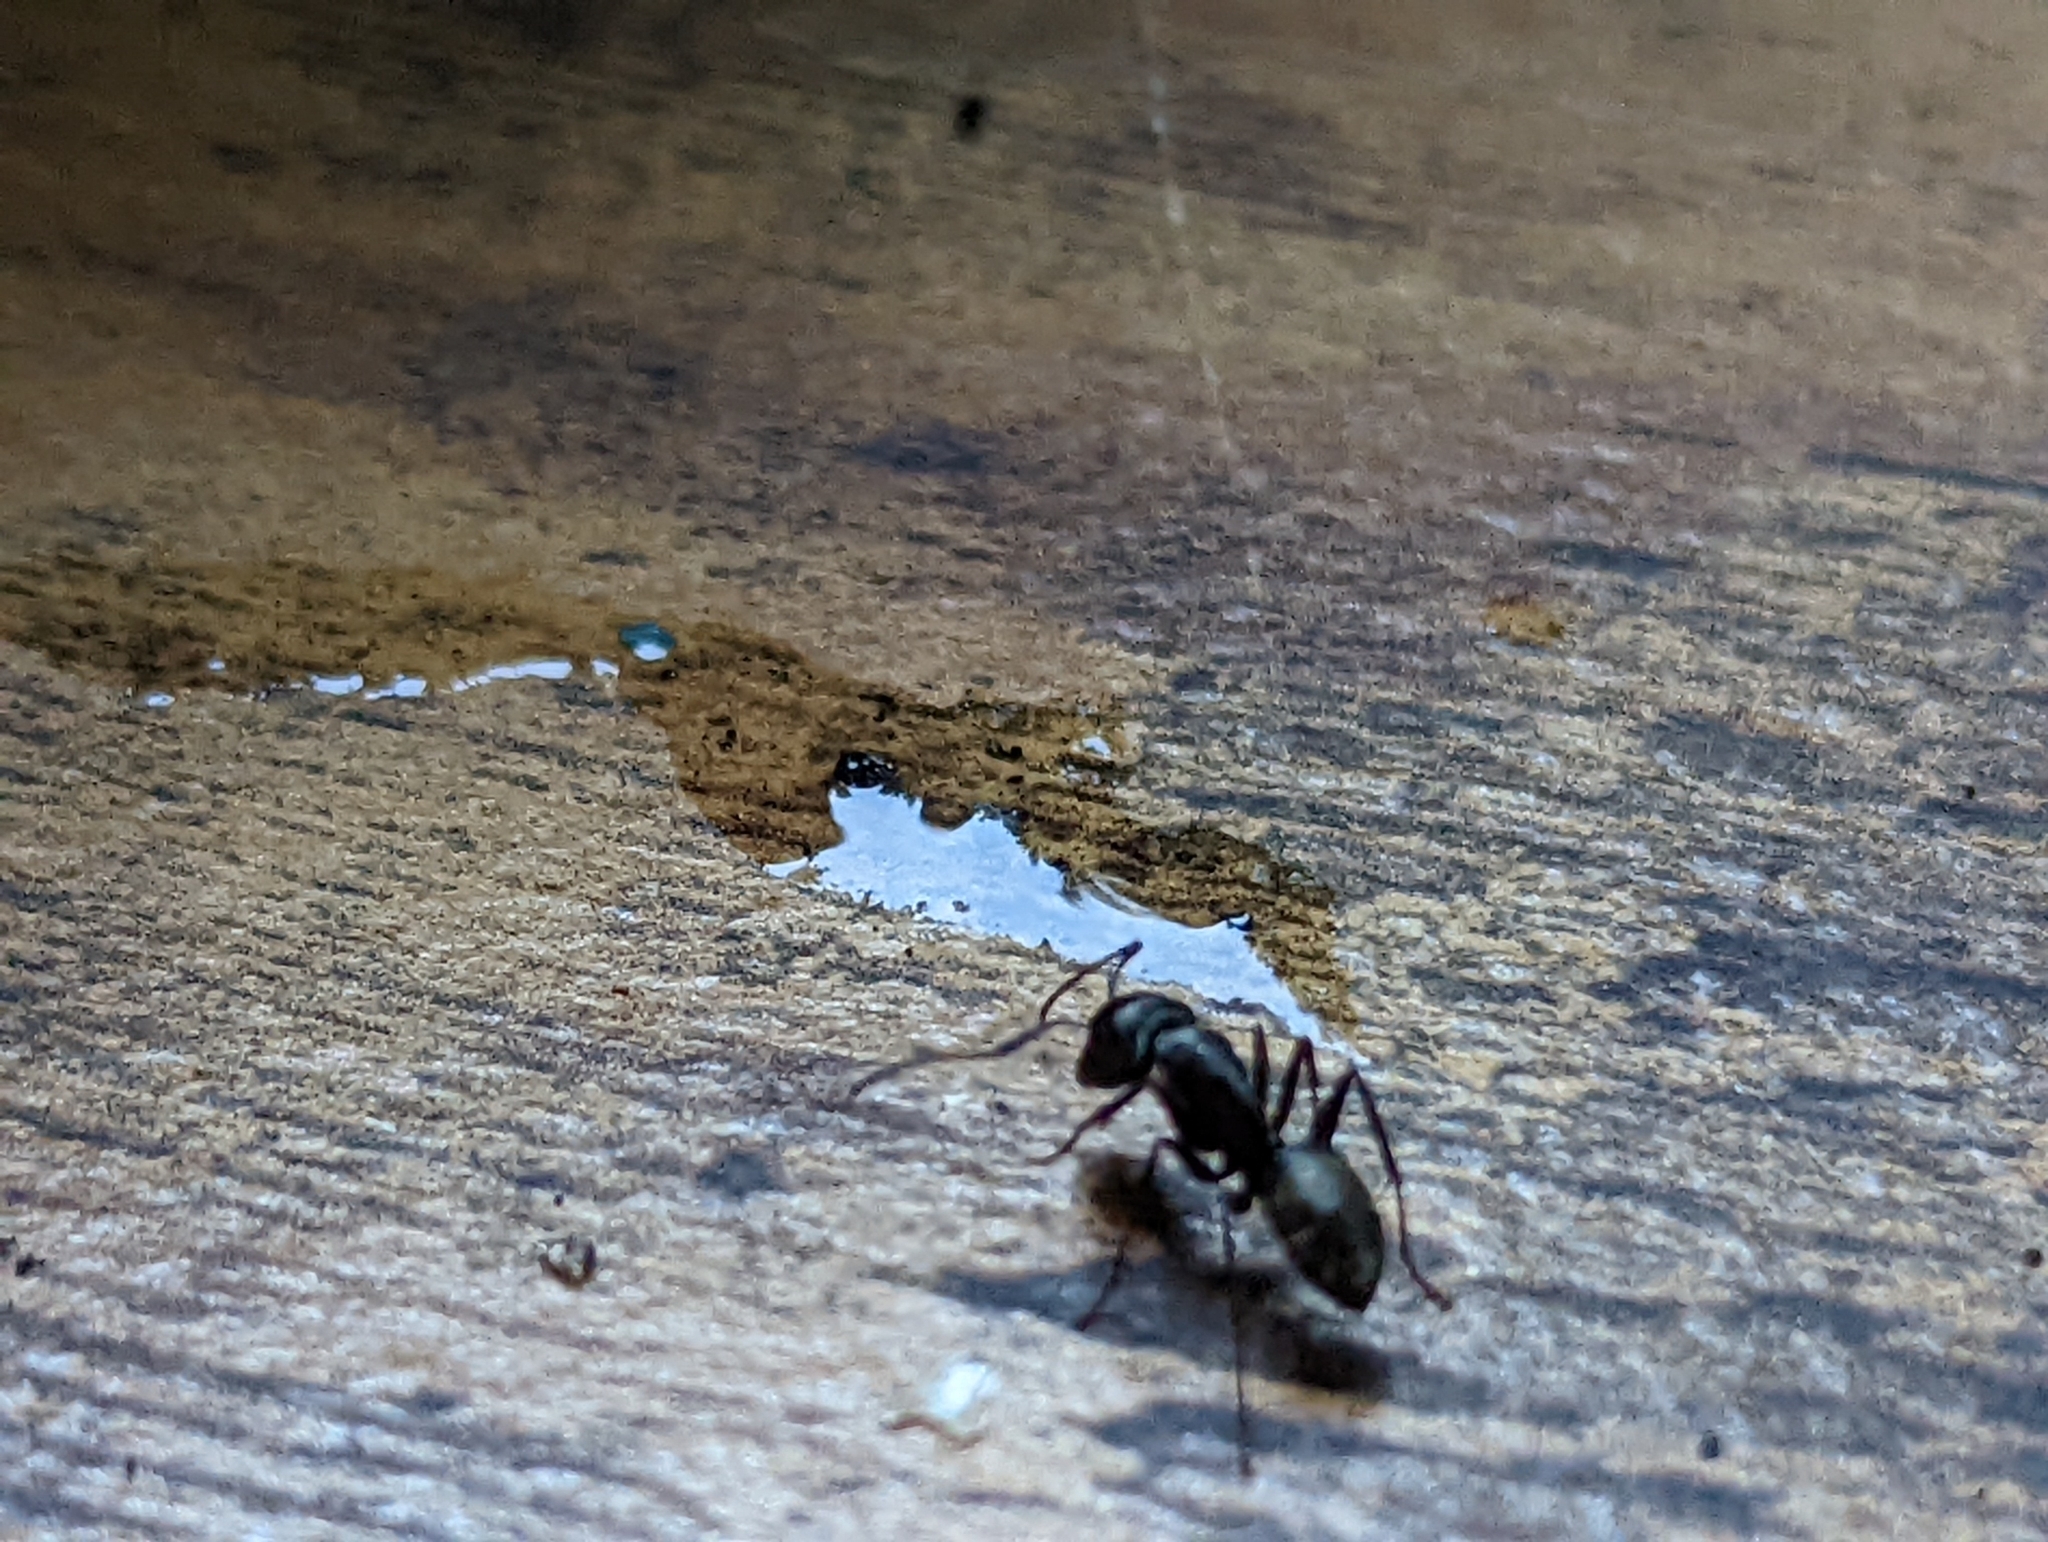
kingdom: Animalia
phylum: Arthropoda
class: Insecta
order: Hymenoptera
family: Formicidae
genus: Camponotus
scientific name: Camponotus pennsylvanicus
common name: Black carpenter ant
